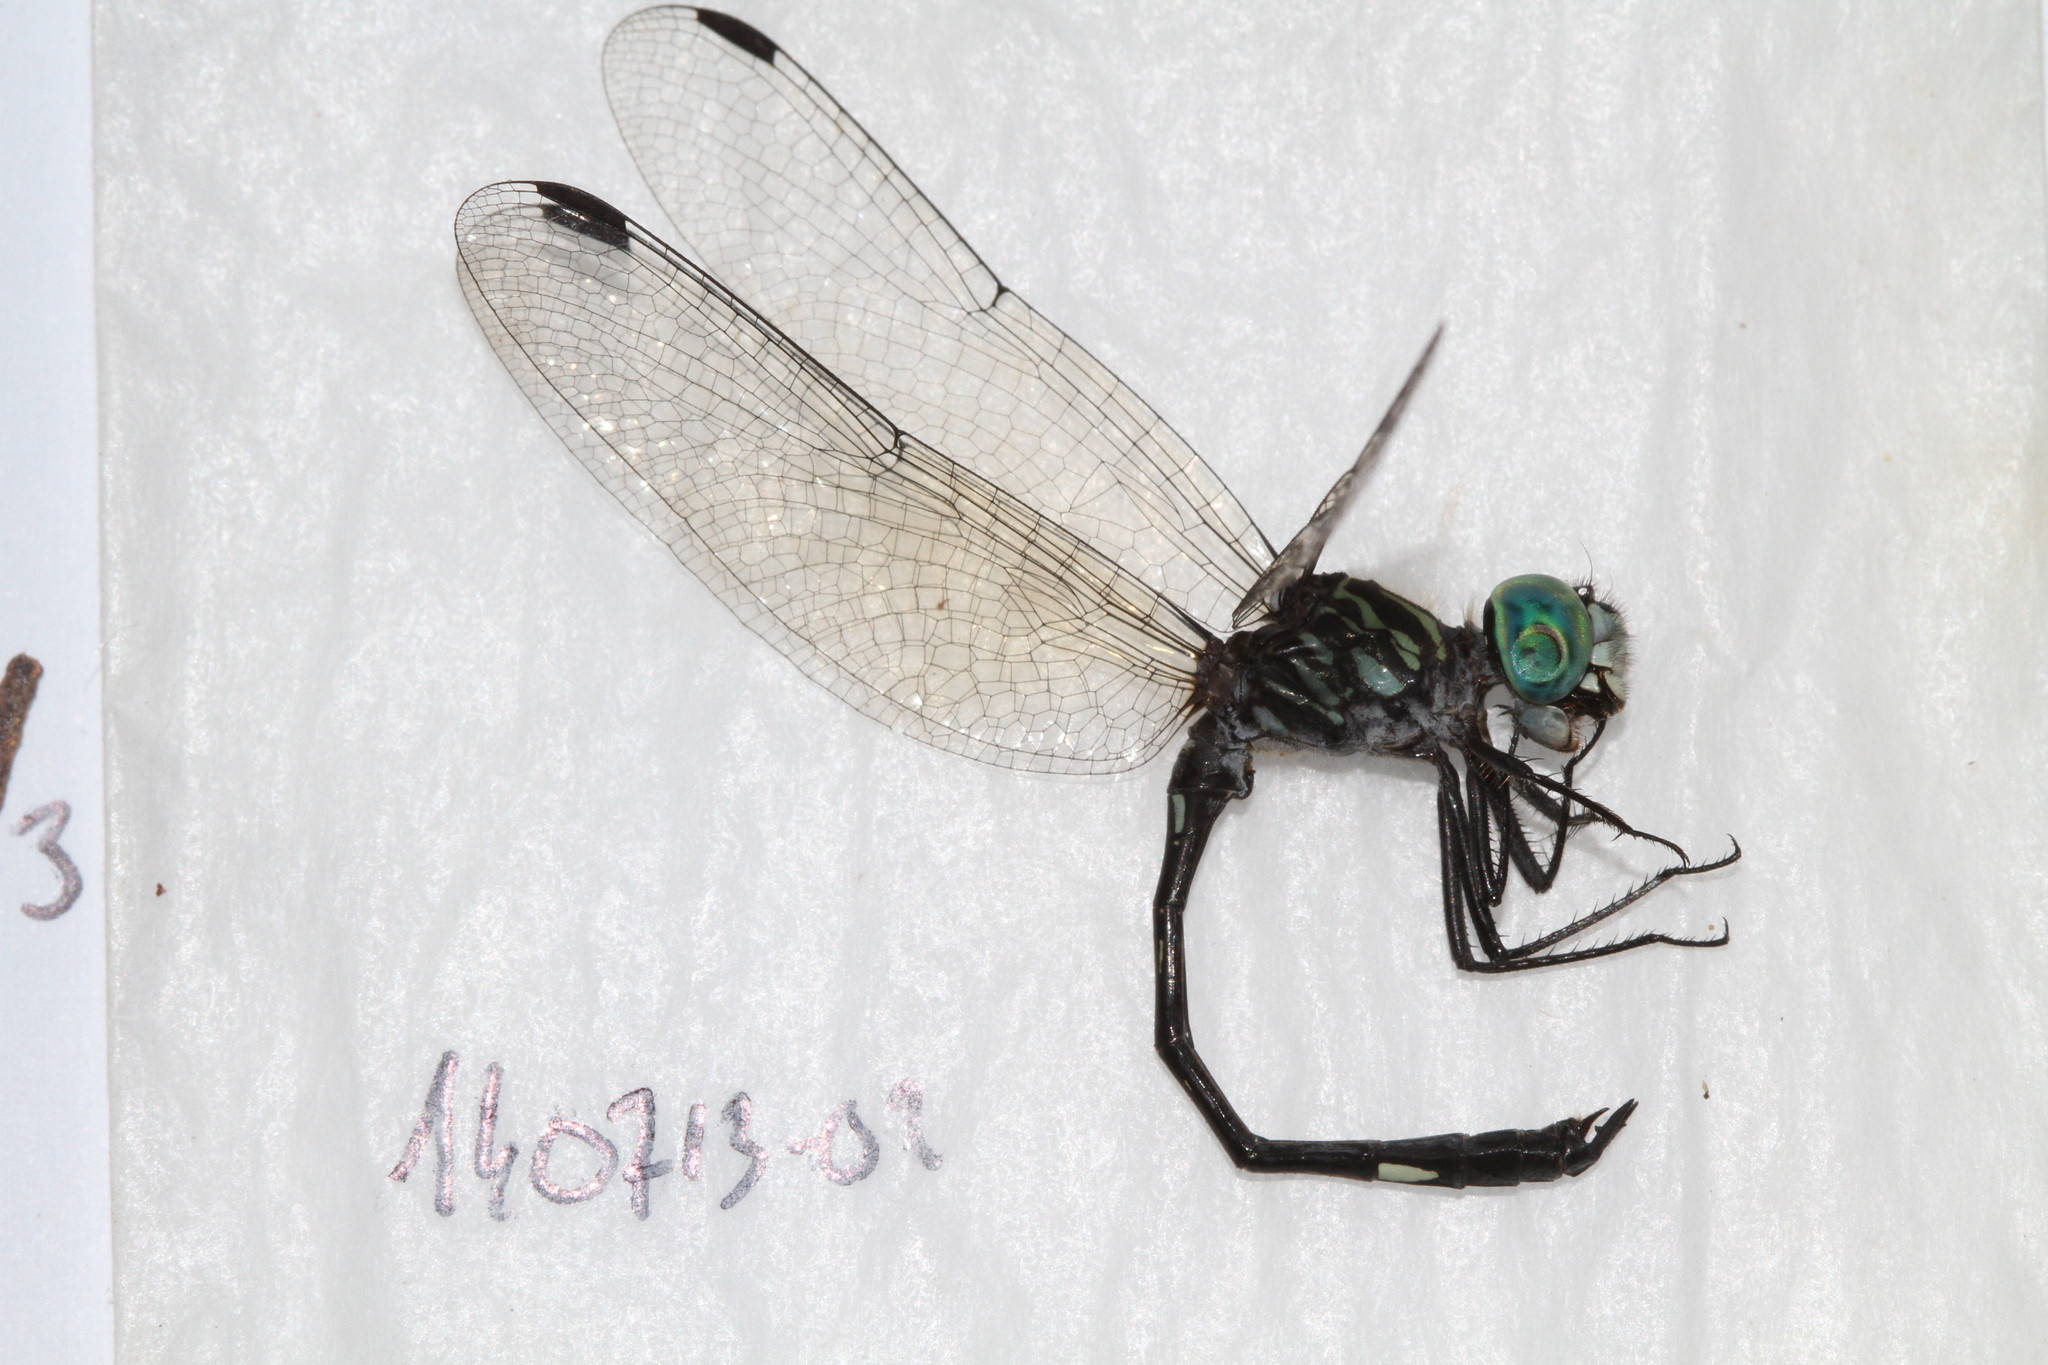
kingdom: Animalia
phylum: Arthropoda
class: Insecta
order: Odonata
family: Libellulidae
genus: Micrathyria
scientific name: Micrathyria mengeri
